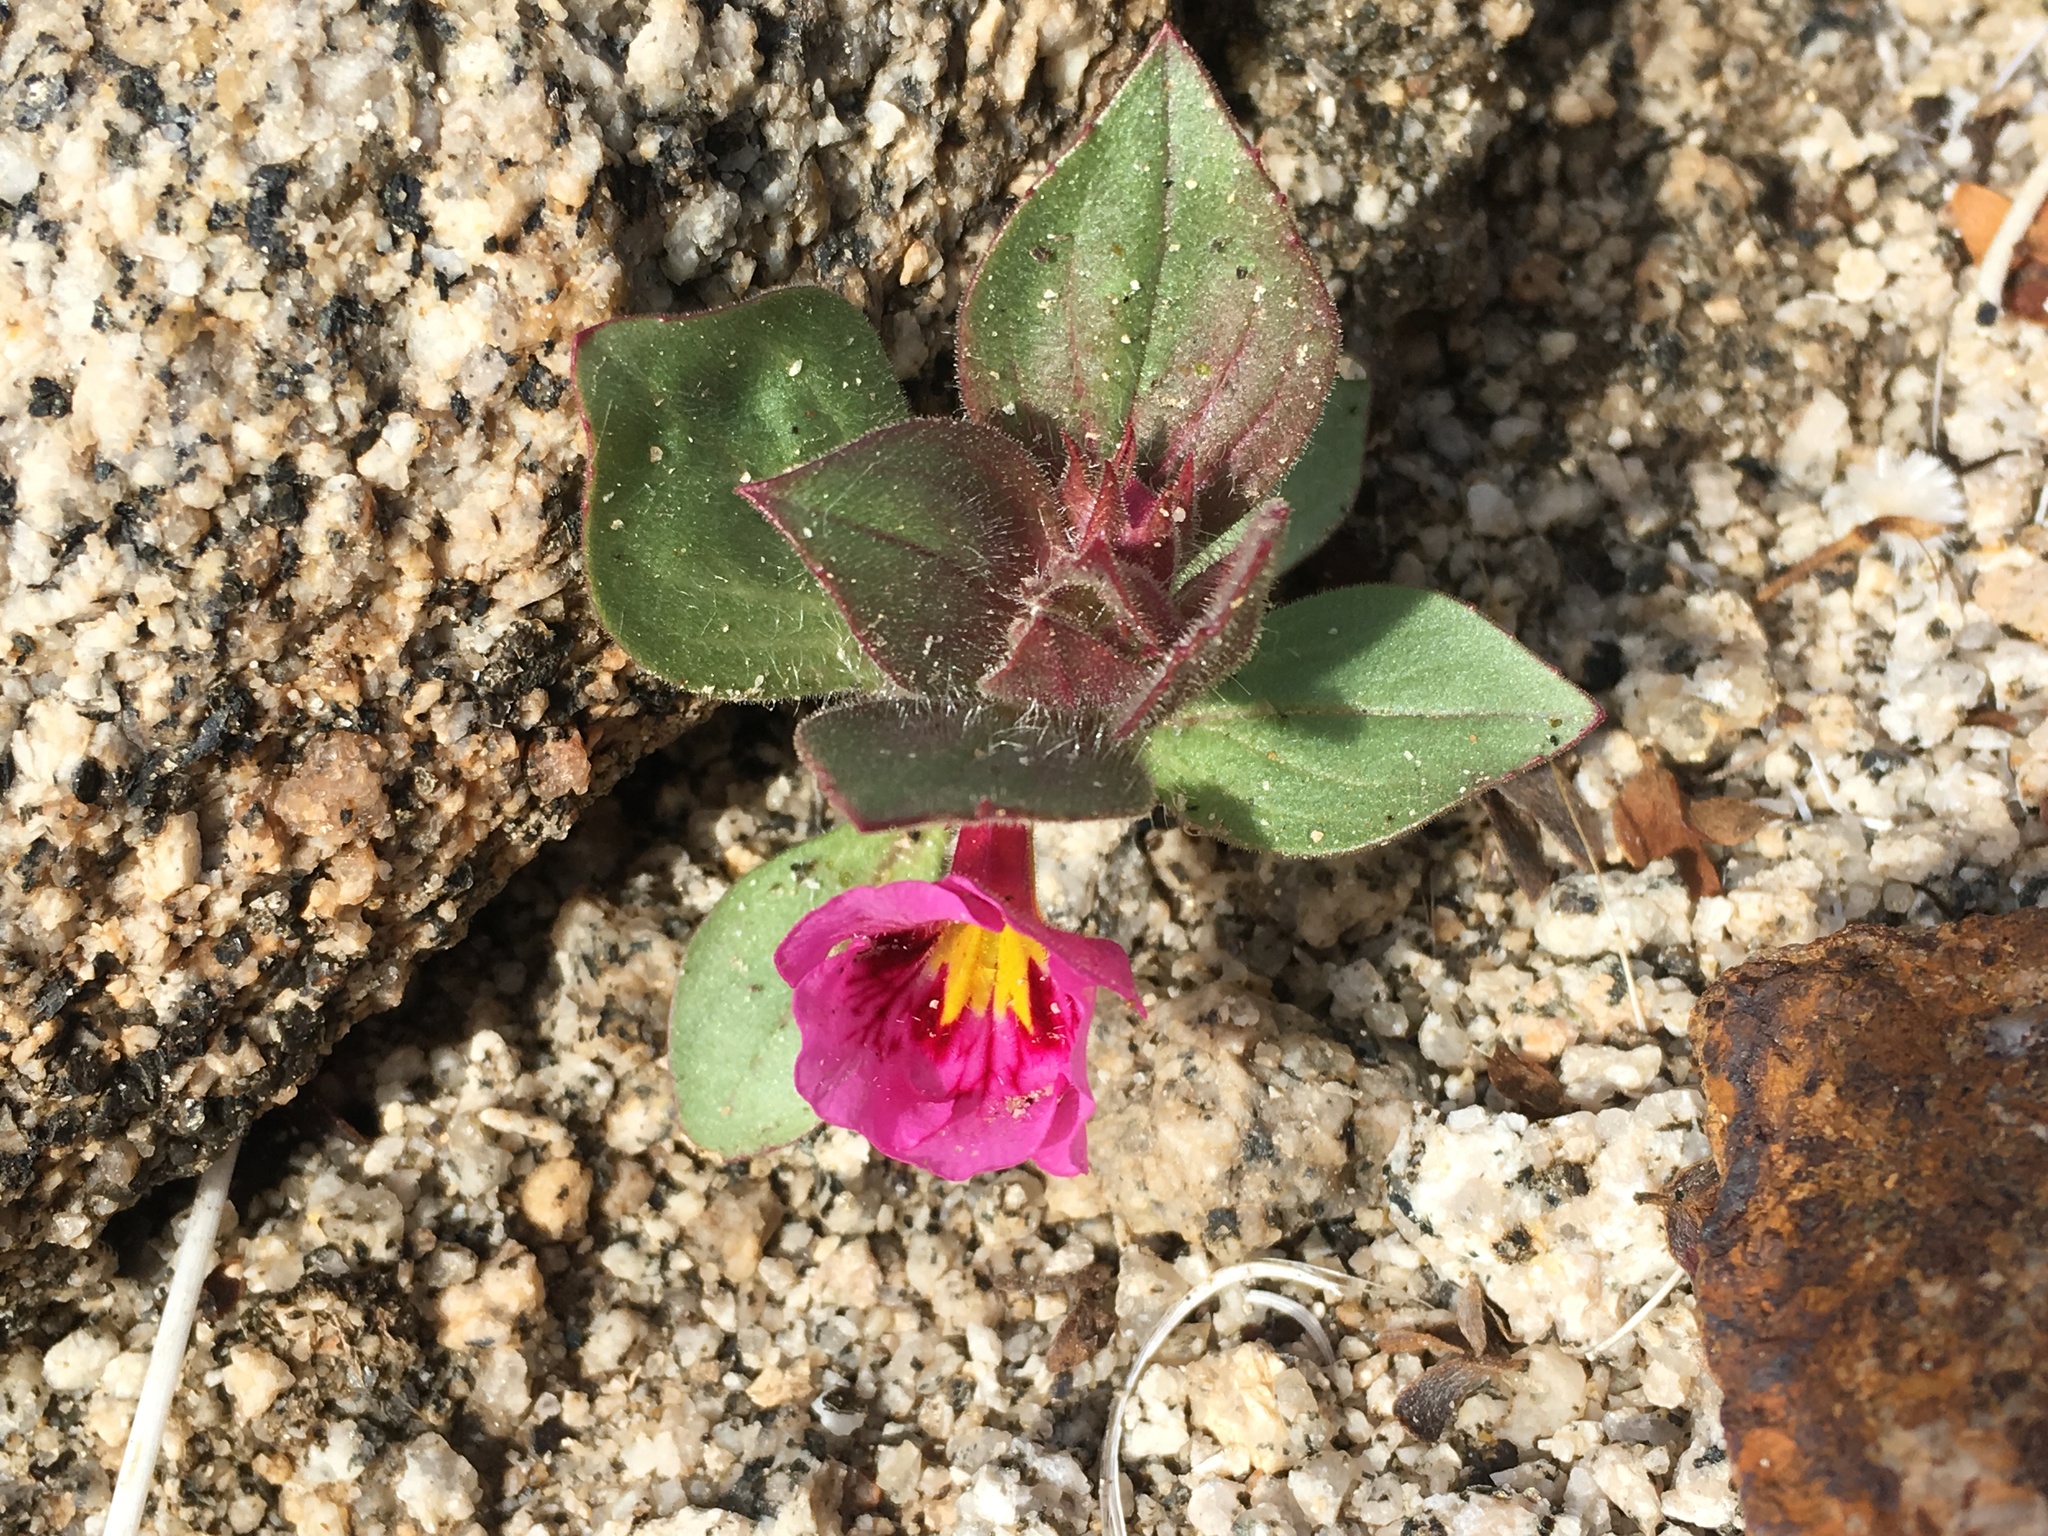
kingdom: Plantae
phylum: Tracheophyta
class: Magnoliopsida
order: Lamiales
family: Phrymaceae
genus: Diplacus
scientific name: Diplacus bigelovii
